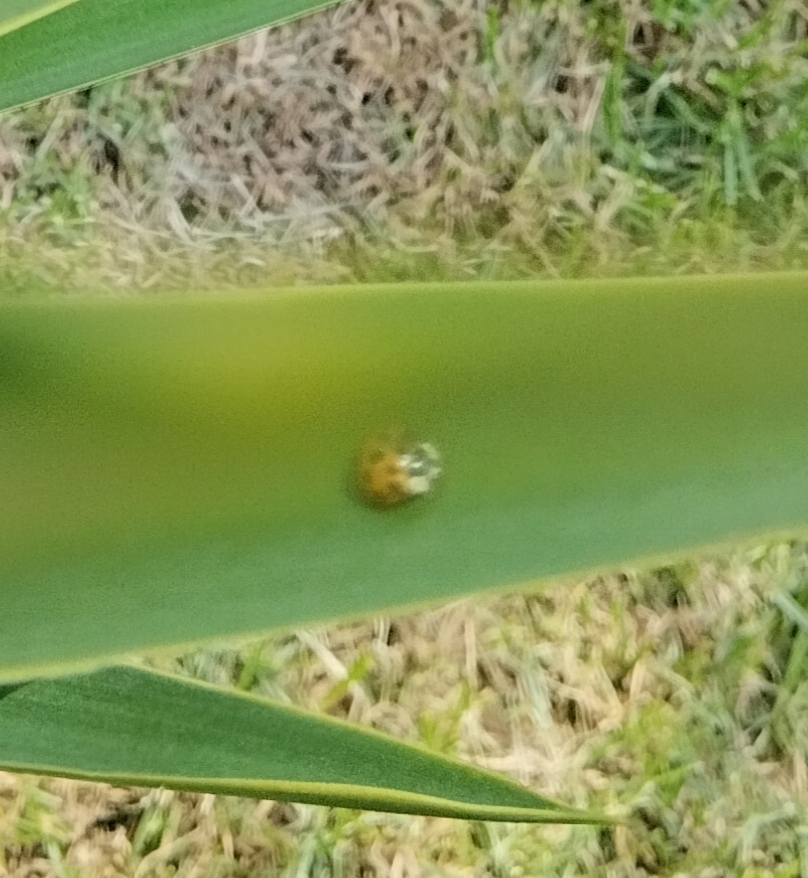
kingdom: Animalia
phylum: Arthropoda
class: Insecta
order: Coleoptera
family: Coccinellidae
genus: Harmonia
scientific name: Harmonia axyridis
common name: Harlequin ladybird
